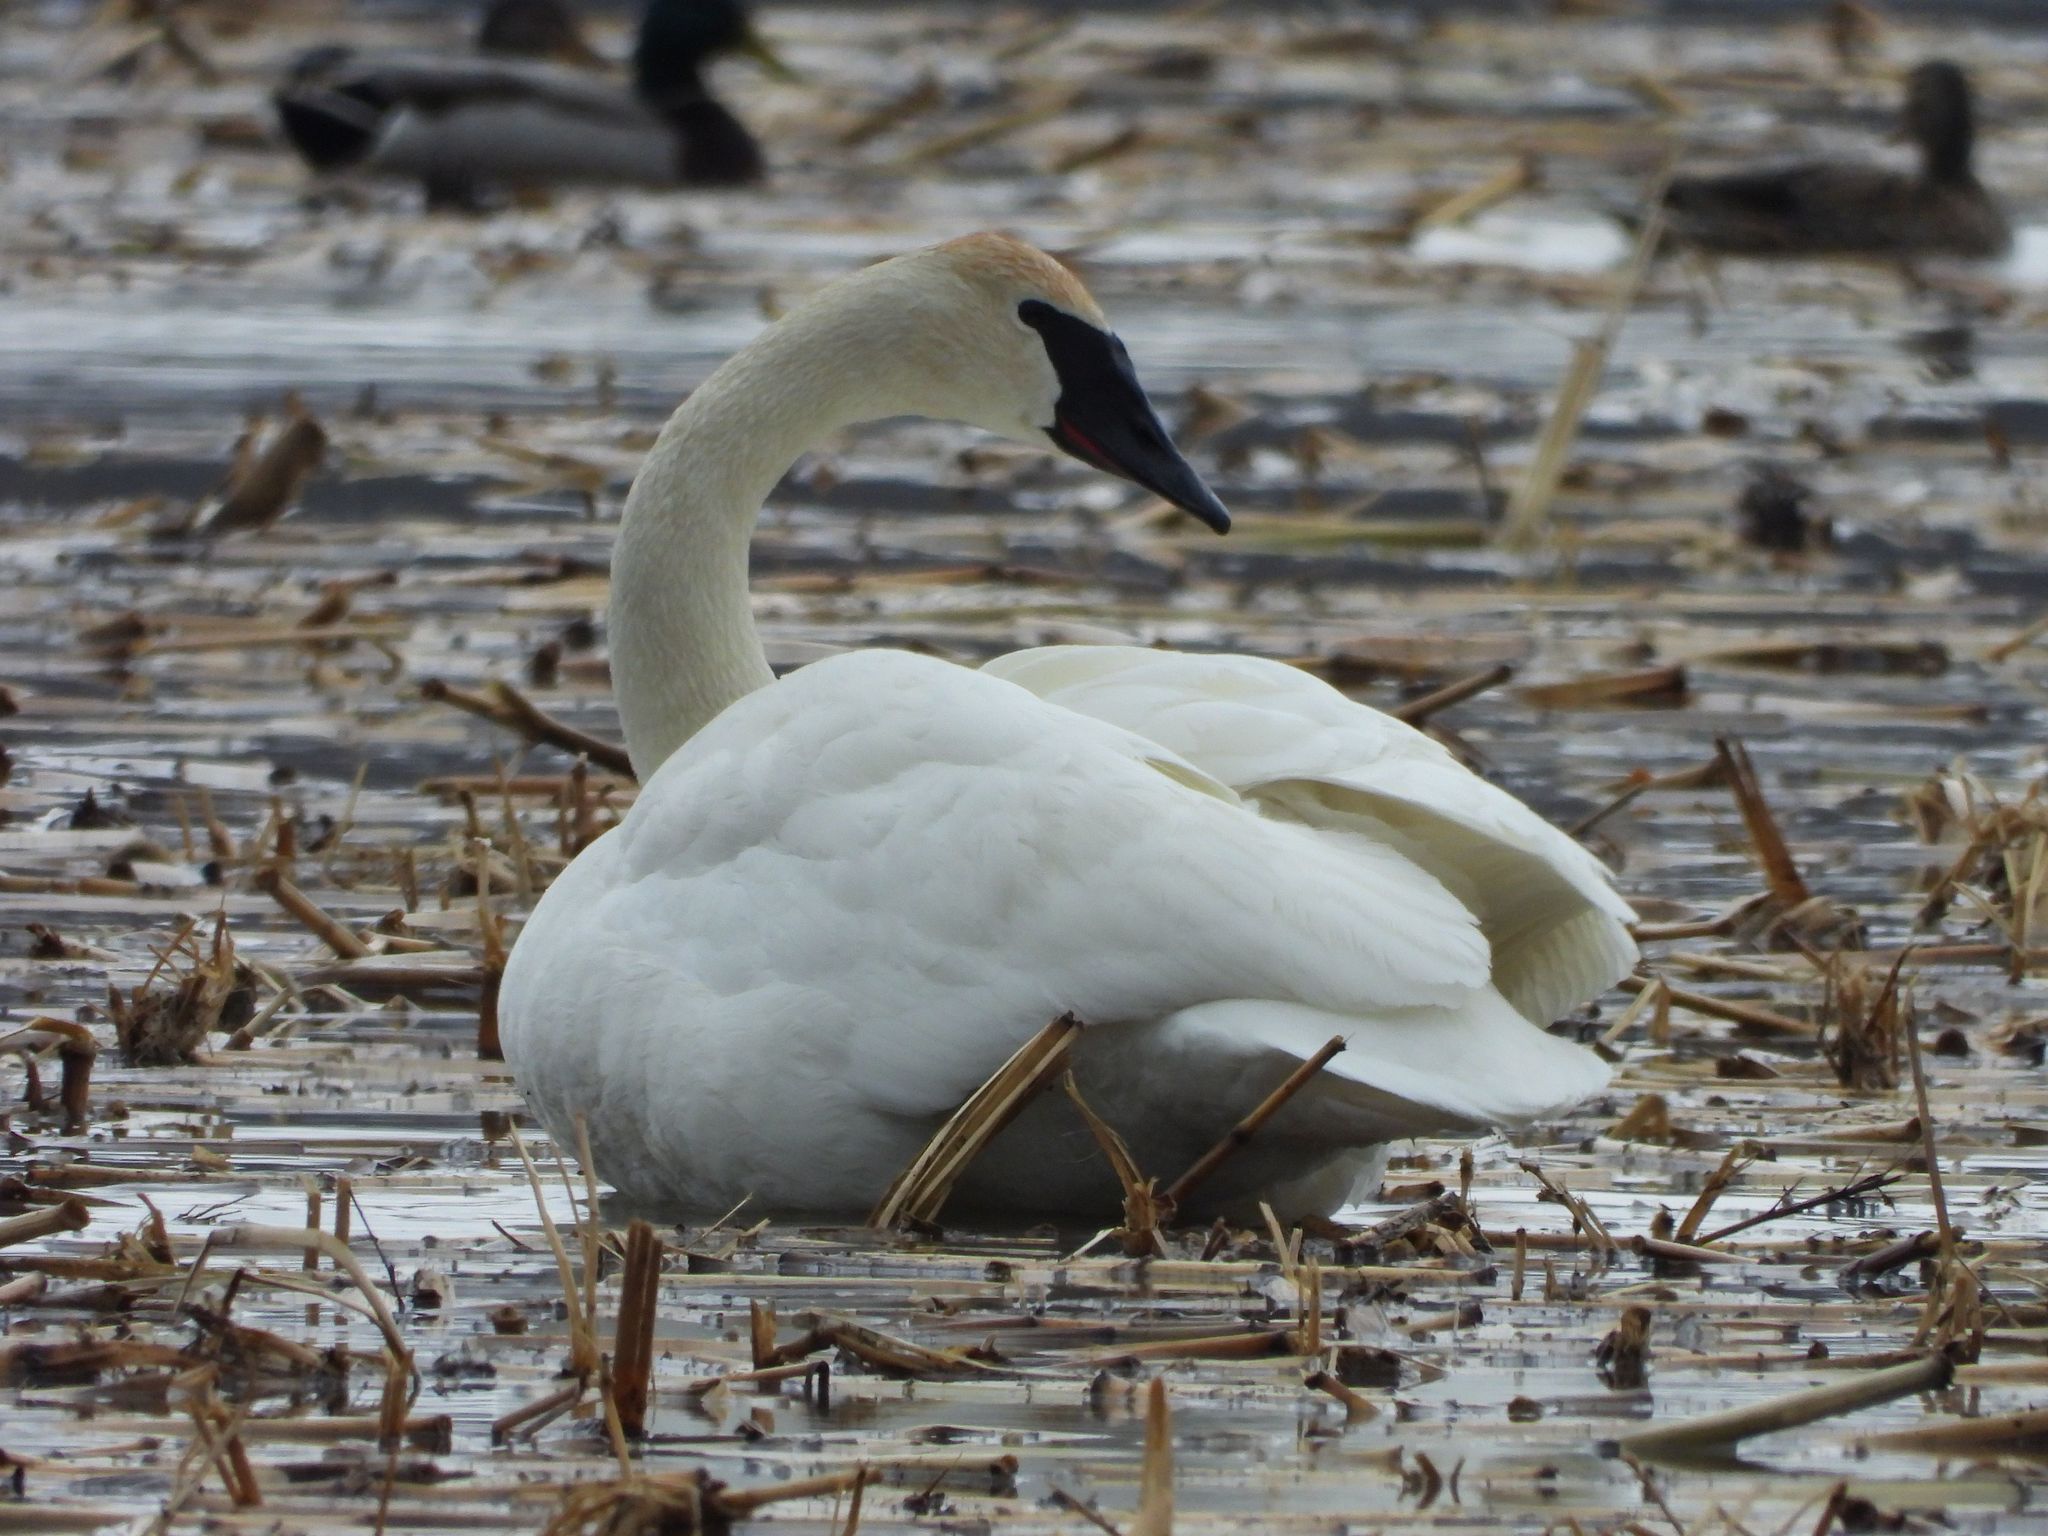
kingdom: Animalia
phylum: Chordata
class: Aves
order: Anseriformes
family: Anatidae
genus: Cygnus
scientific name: Cygnus buccinator
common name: Trumpeter swan
